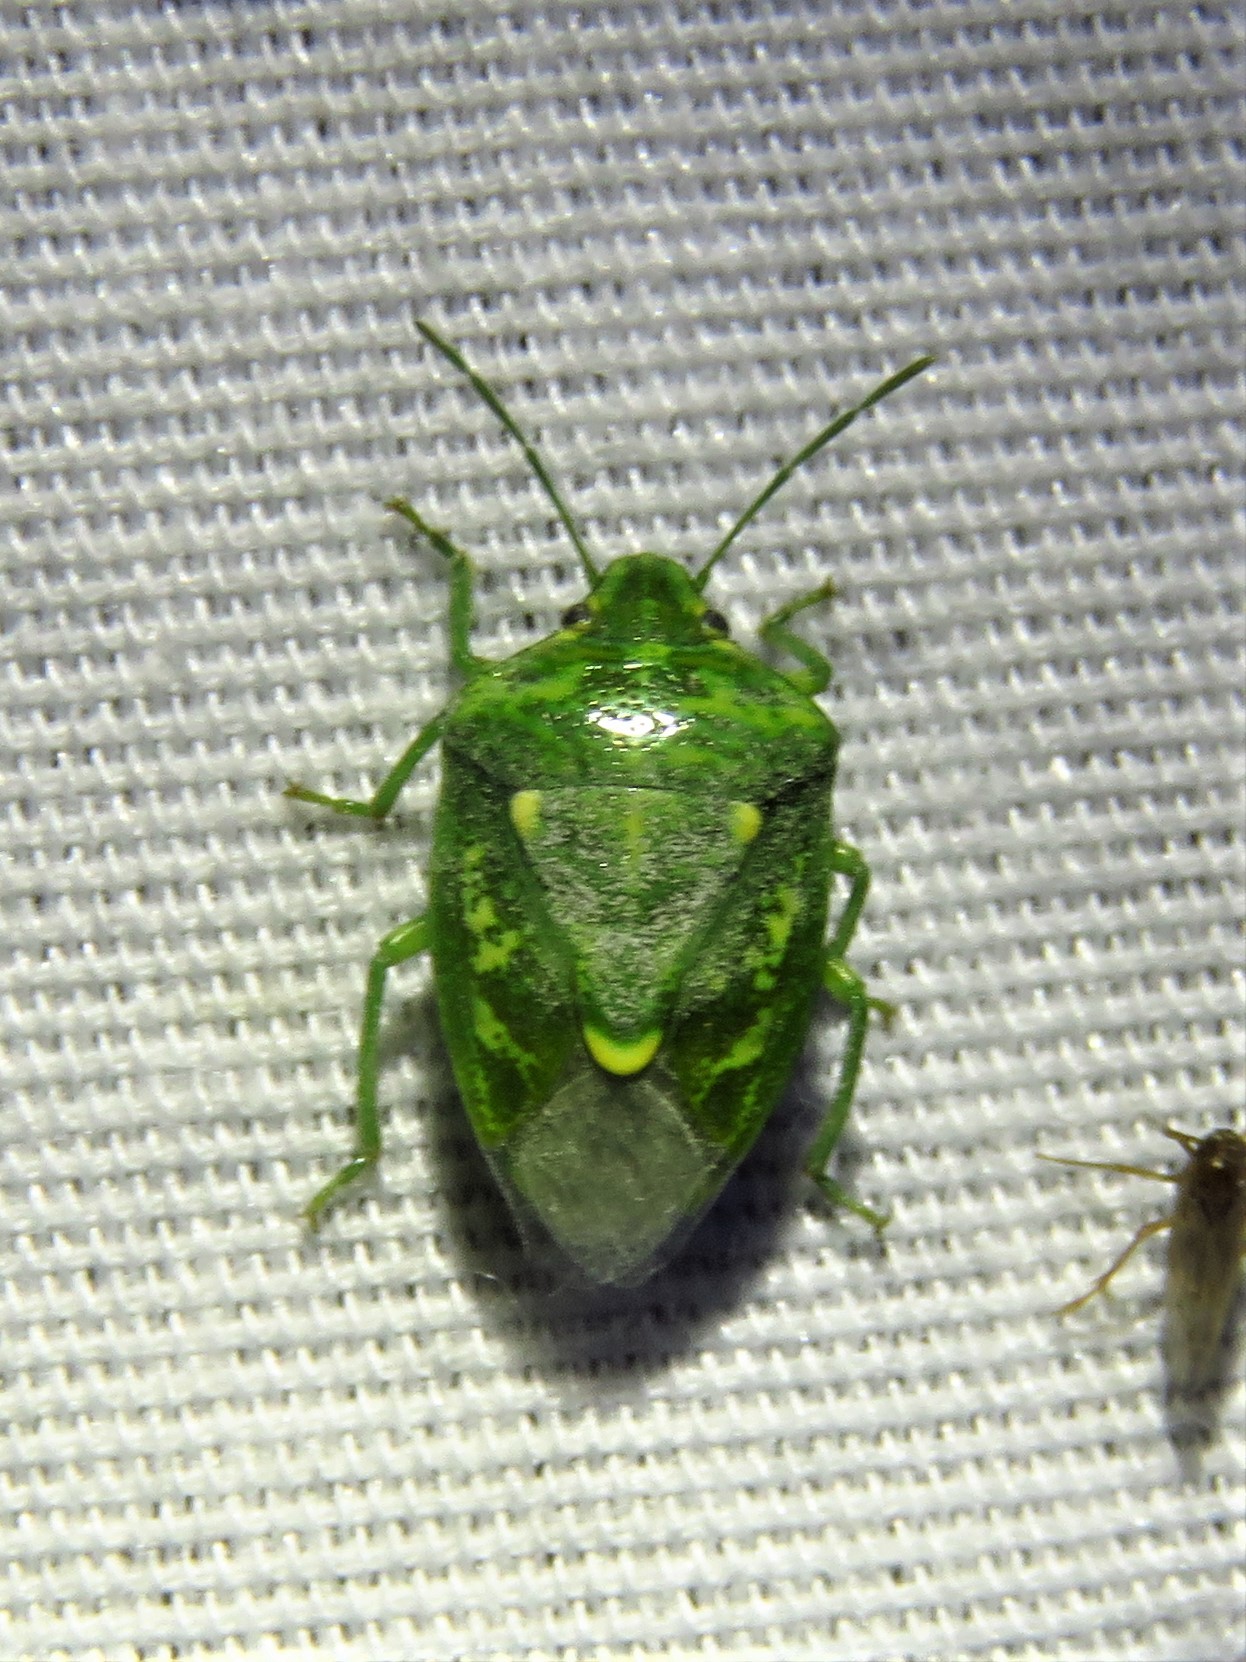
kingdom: Animalia
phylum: Arthropoda
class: Insecta
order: Hemiptera
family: Pentatomidae
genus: Banasa
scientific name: Banasa euchlora
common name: Cedar berry bug
